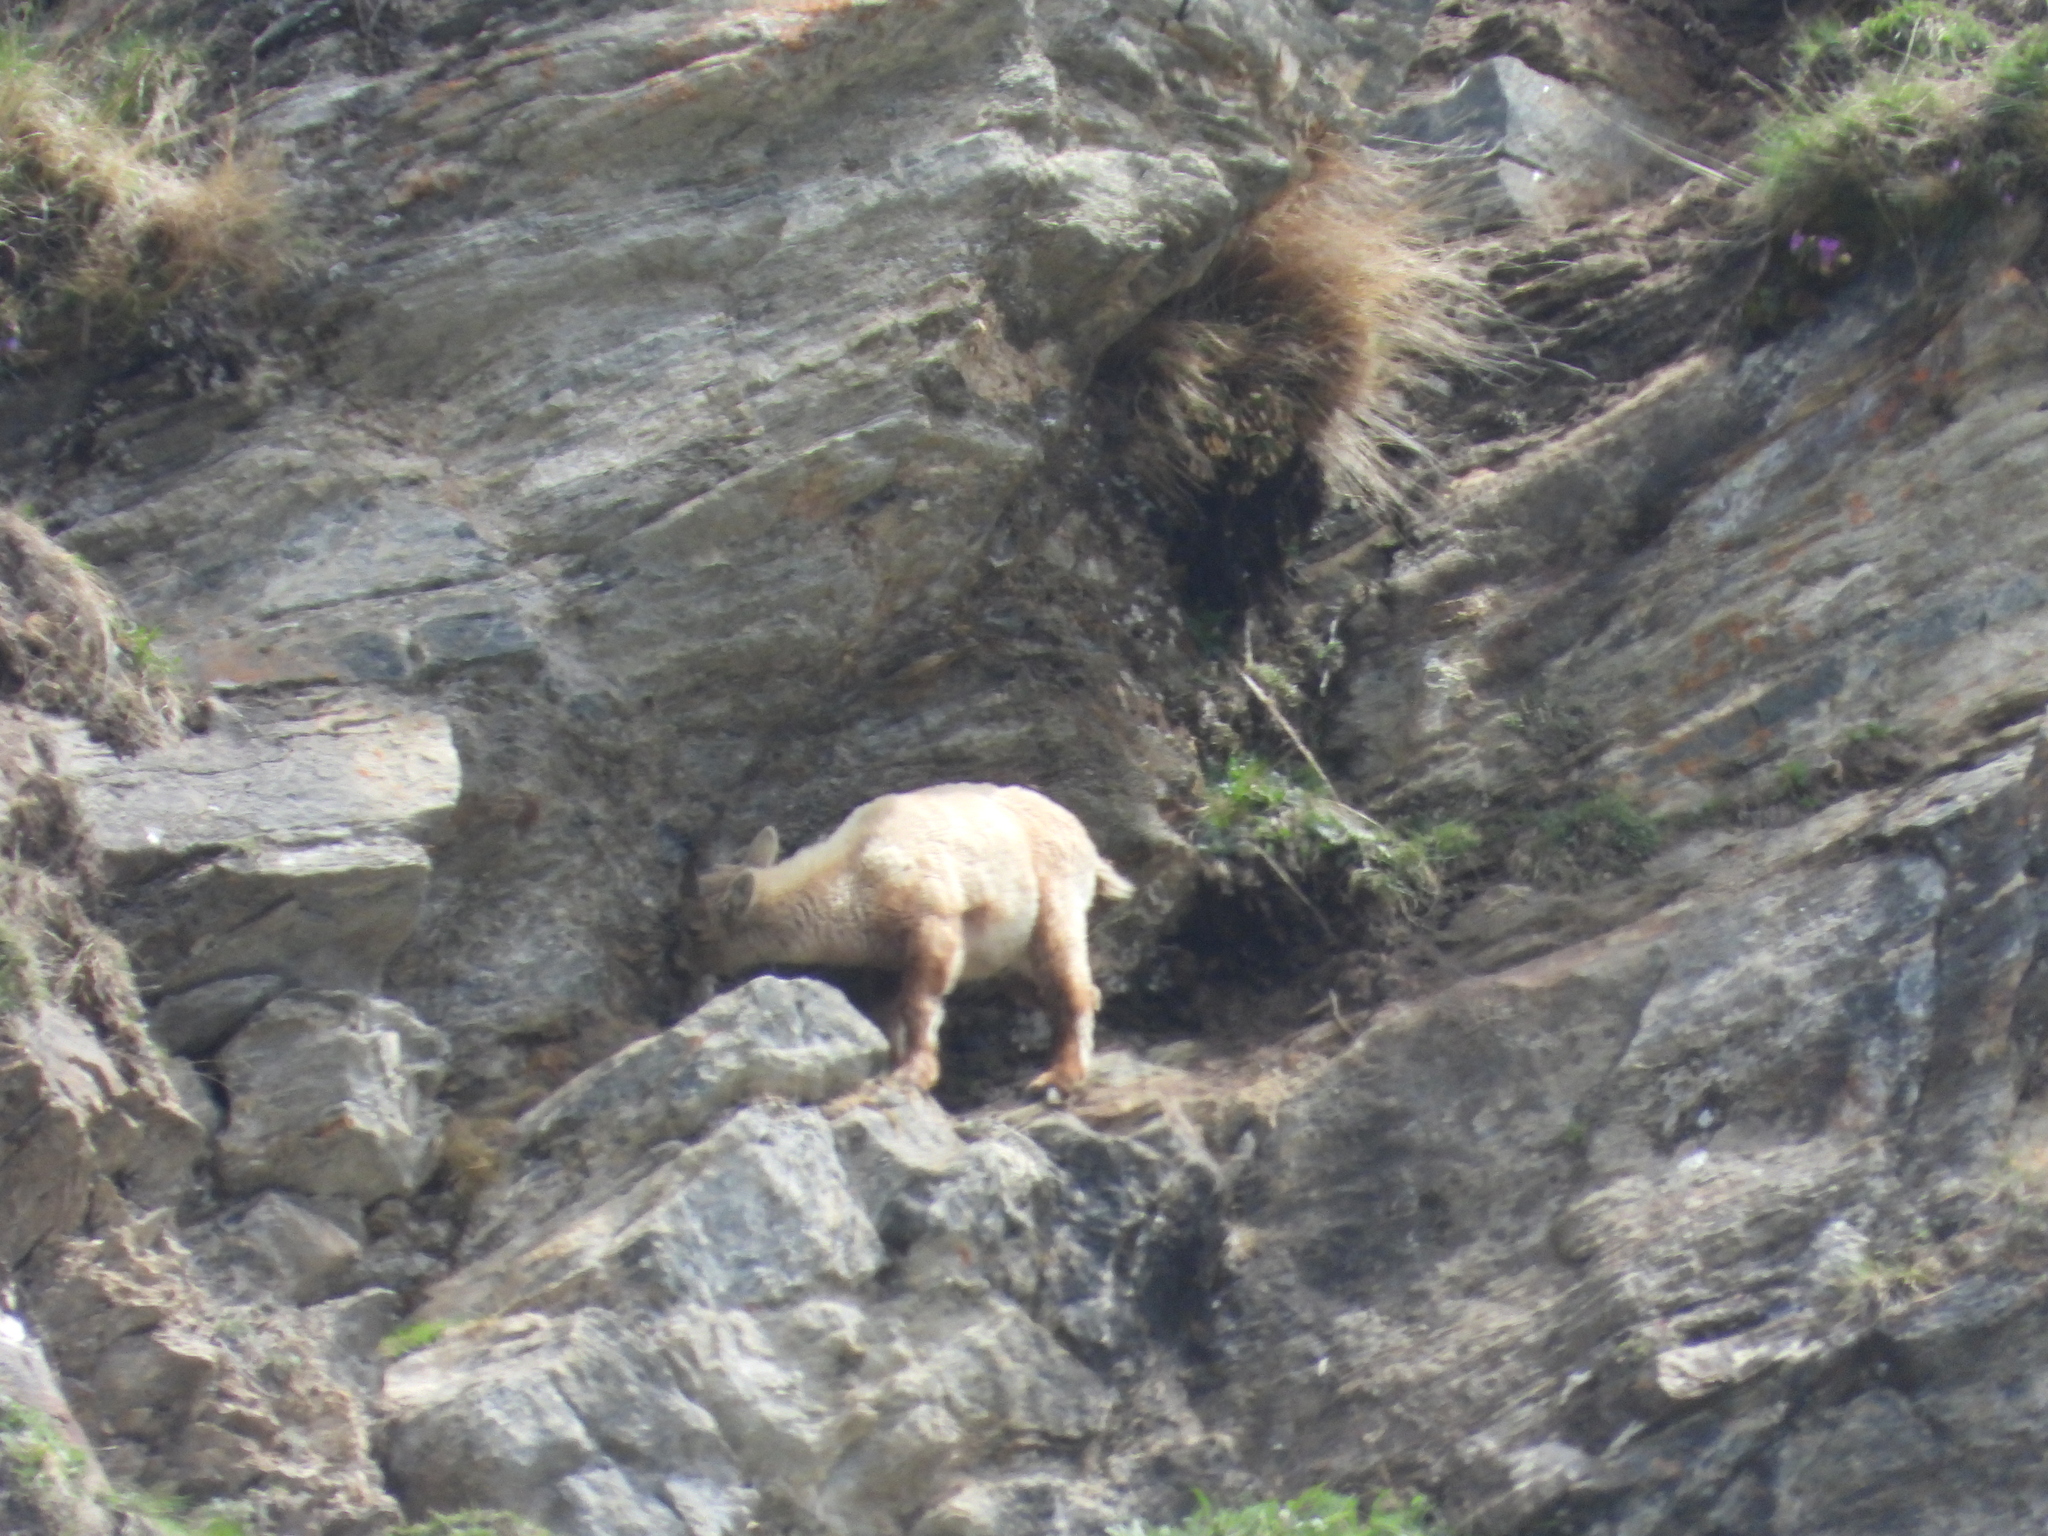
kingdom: Animalia
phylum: Chordata
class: Mammalia
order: Artiodactyla
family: Bovidae
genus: Capra
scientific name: Capra ibex
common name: Alpine ibex
